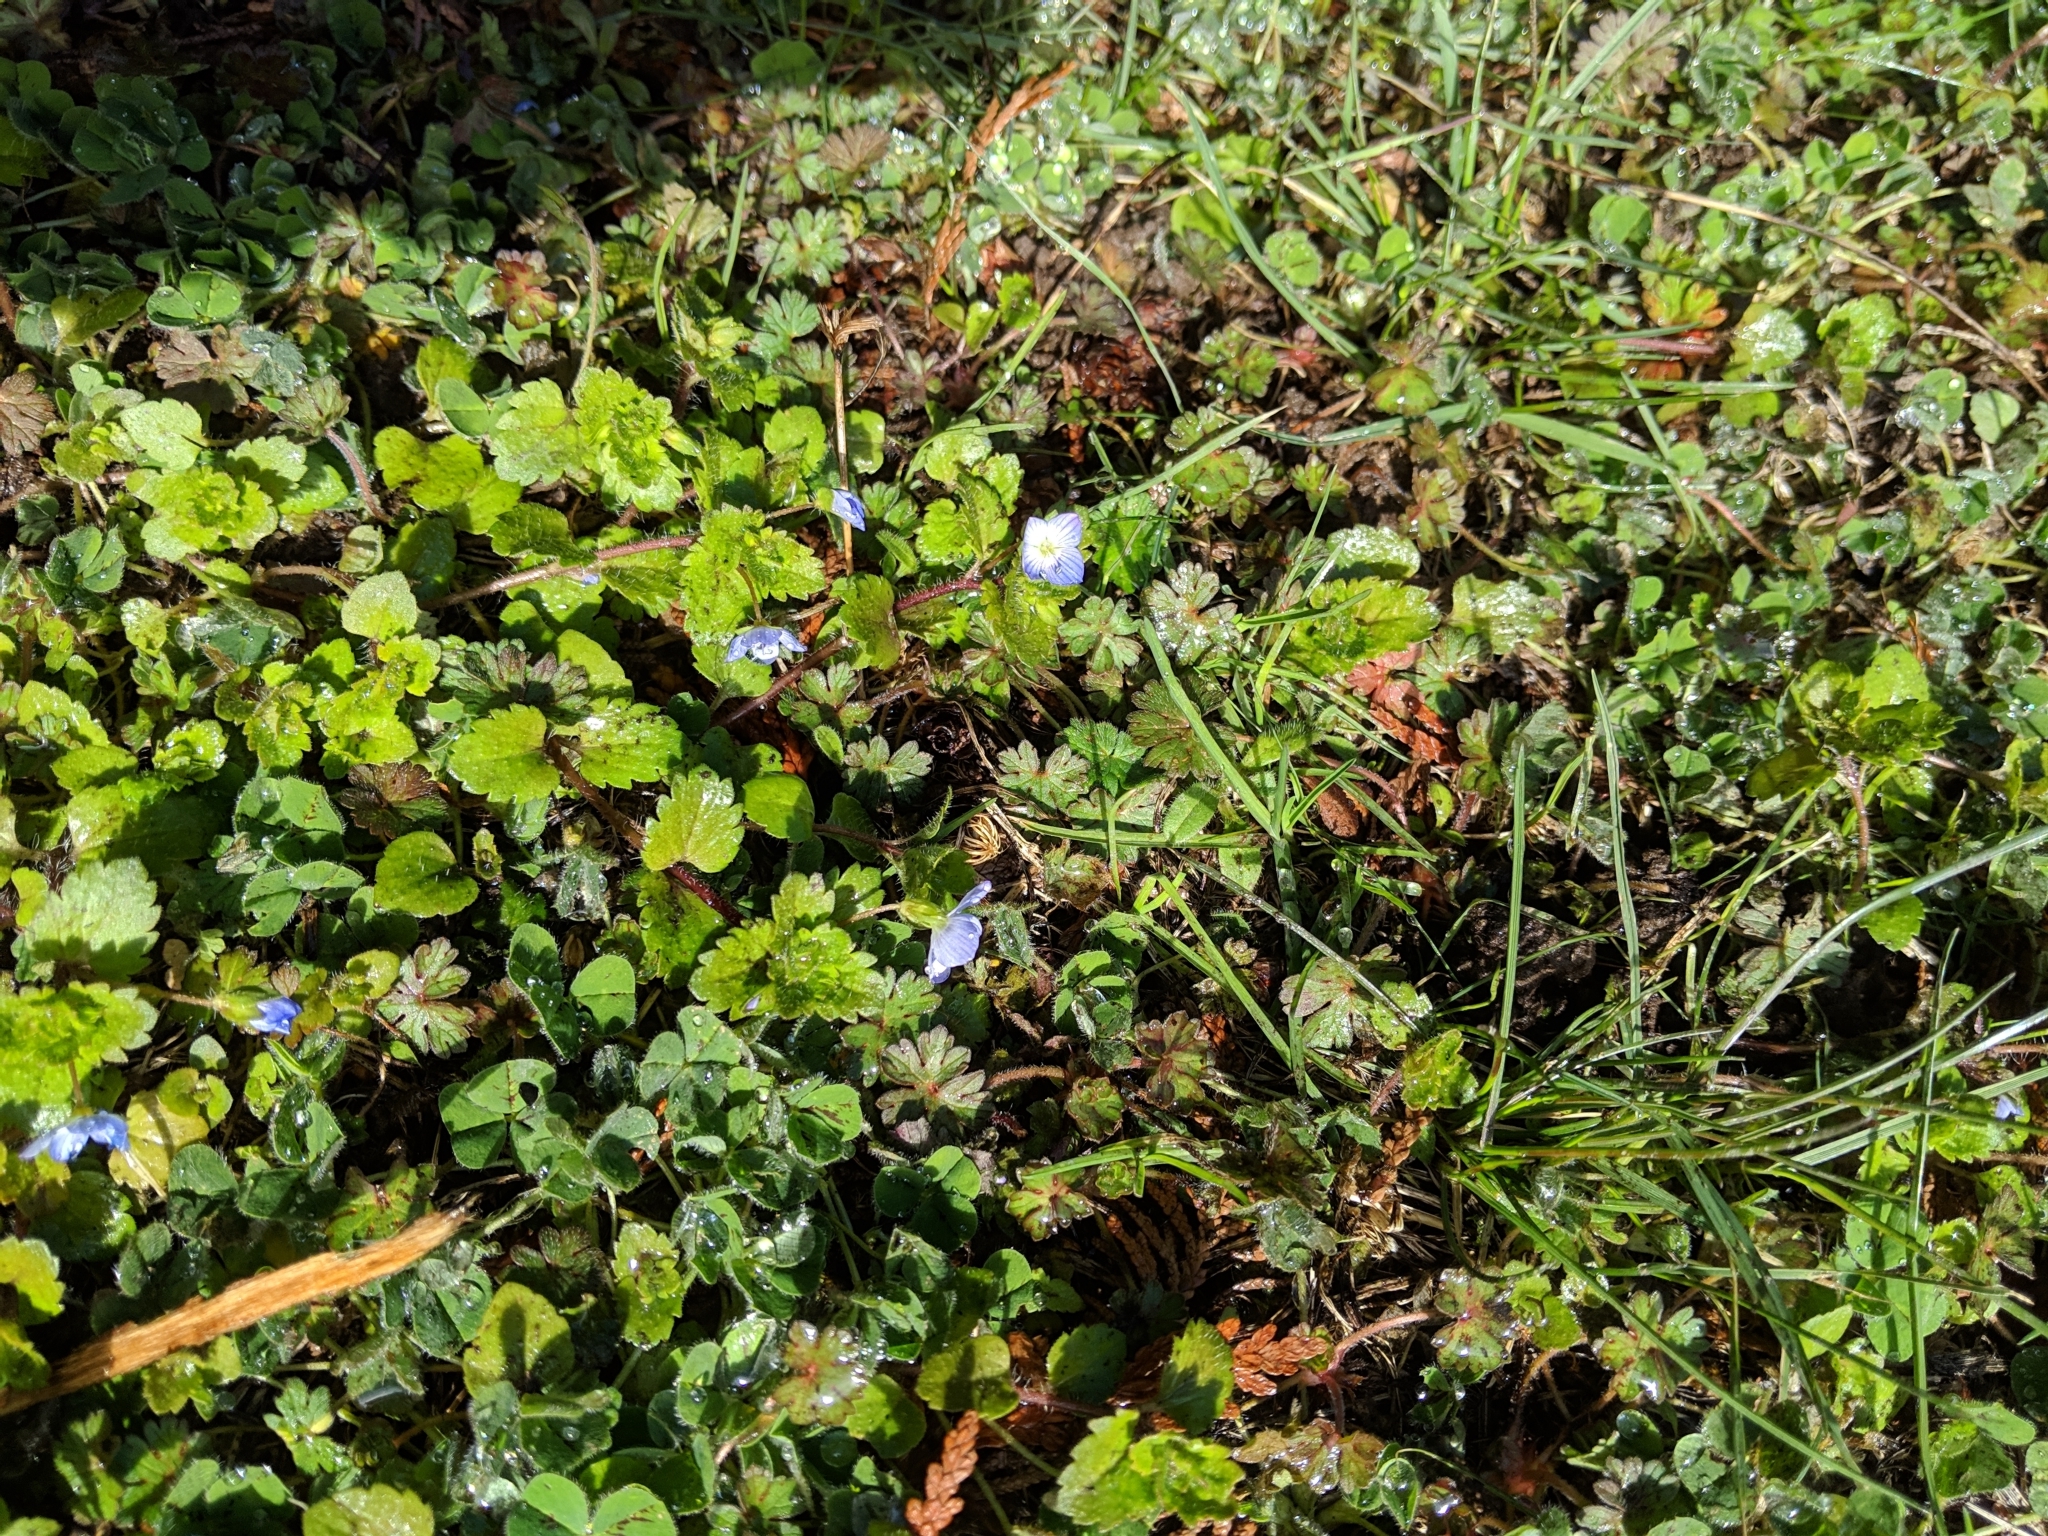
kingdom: Plantae
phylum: Tracheophyta
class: Magnoliopsida
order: Lamiales
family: Plantaginaceae
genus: Veronica
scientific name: Veronica persica
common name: Common field-speedwell
